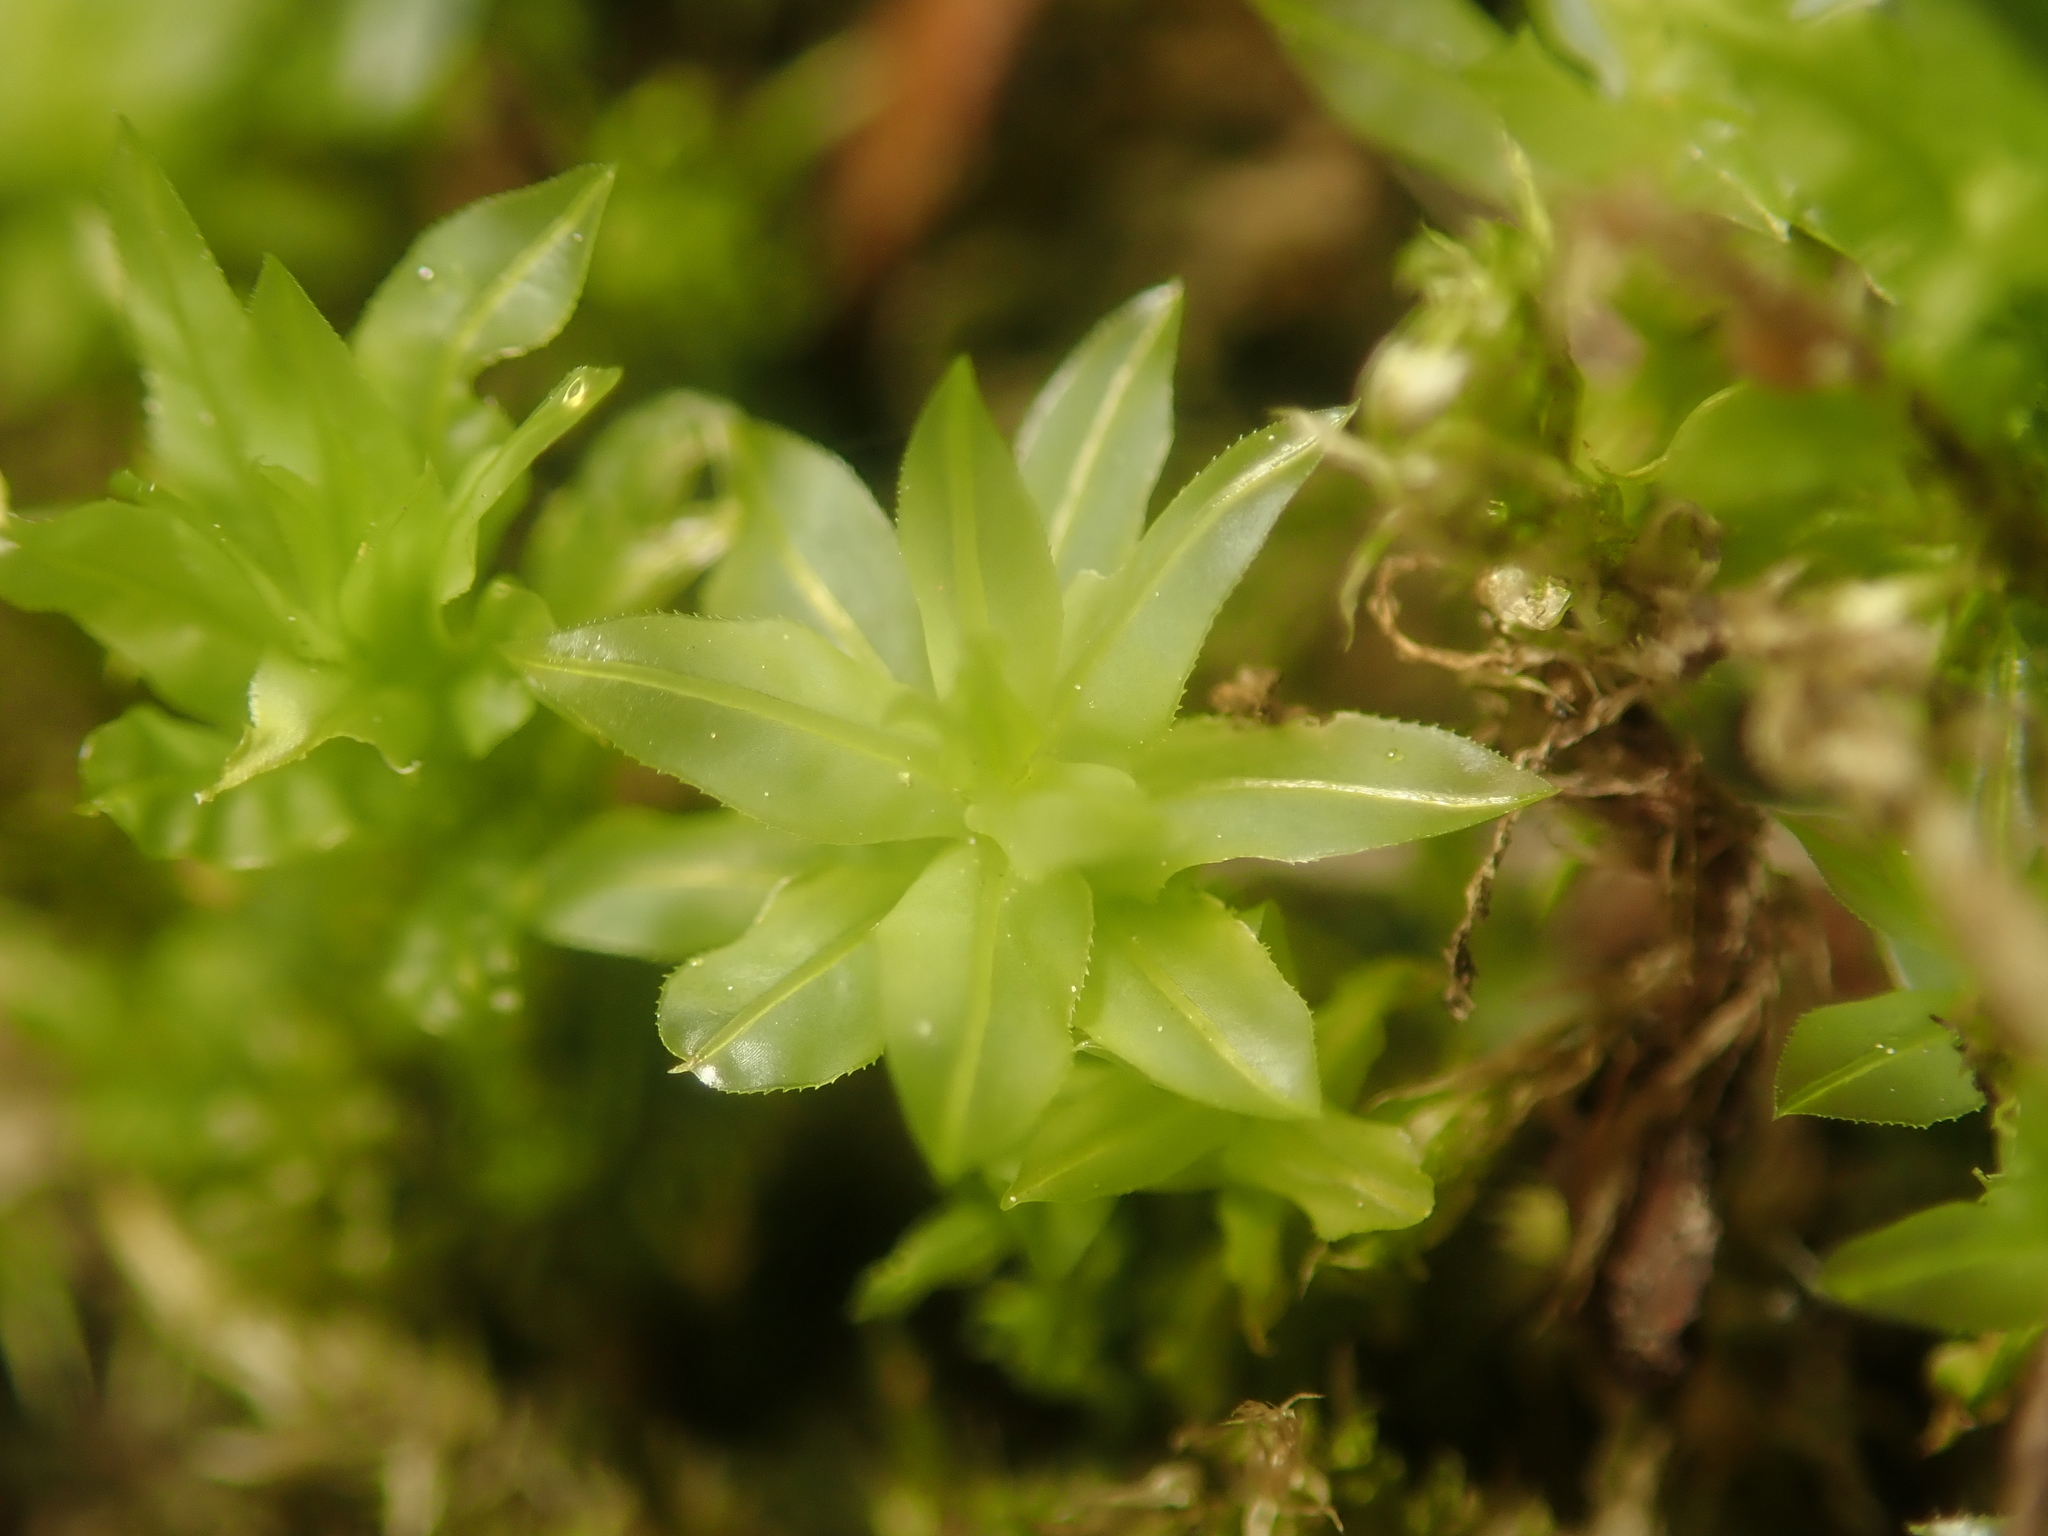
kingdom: Plantae
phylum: Bryophyta
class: Bryopsida
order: Bryales
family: Mniaceae
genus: Plagiomnium
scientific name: Plagiomnium undulatum
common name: Hart's-tongue thyme-moss
